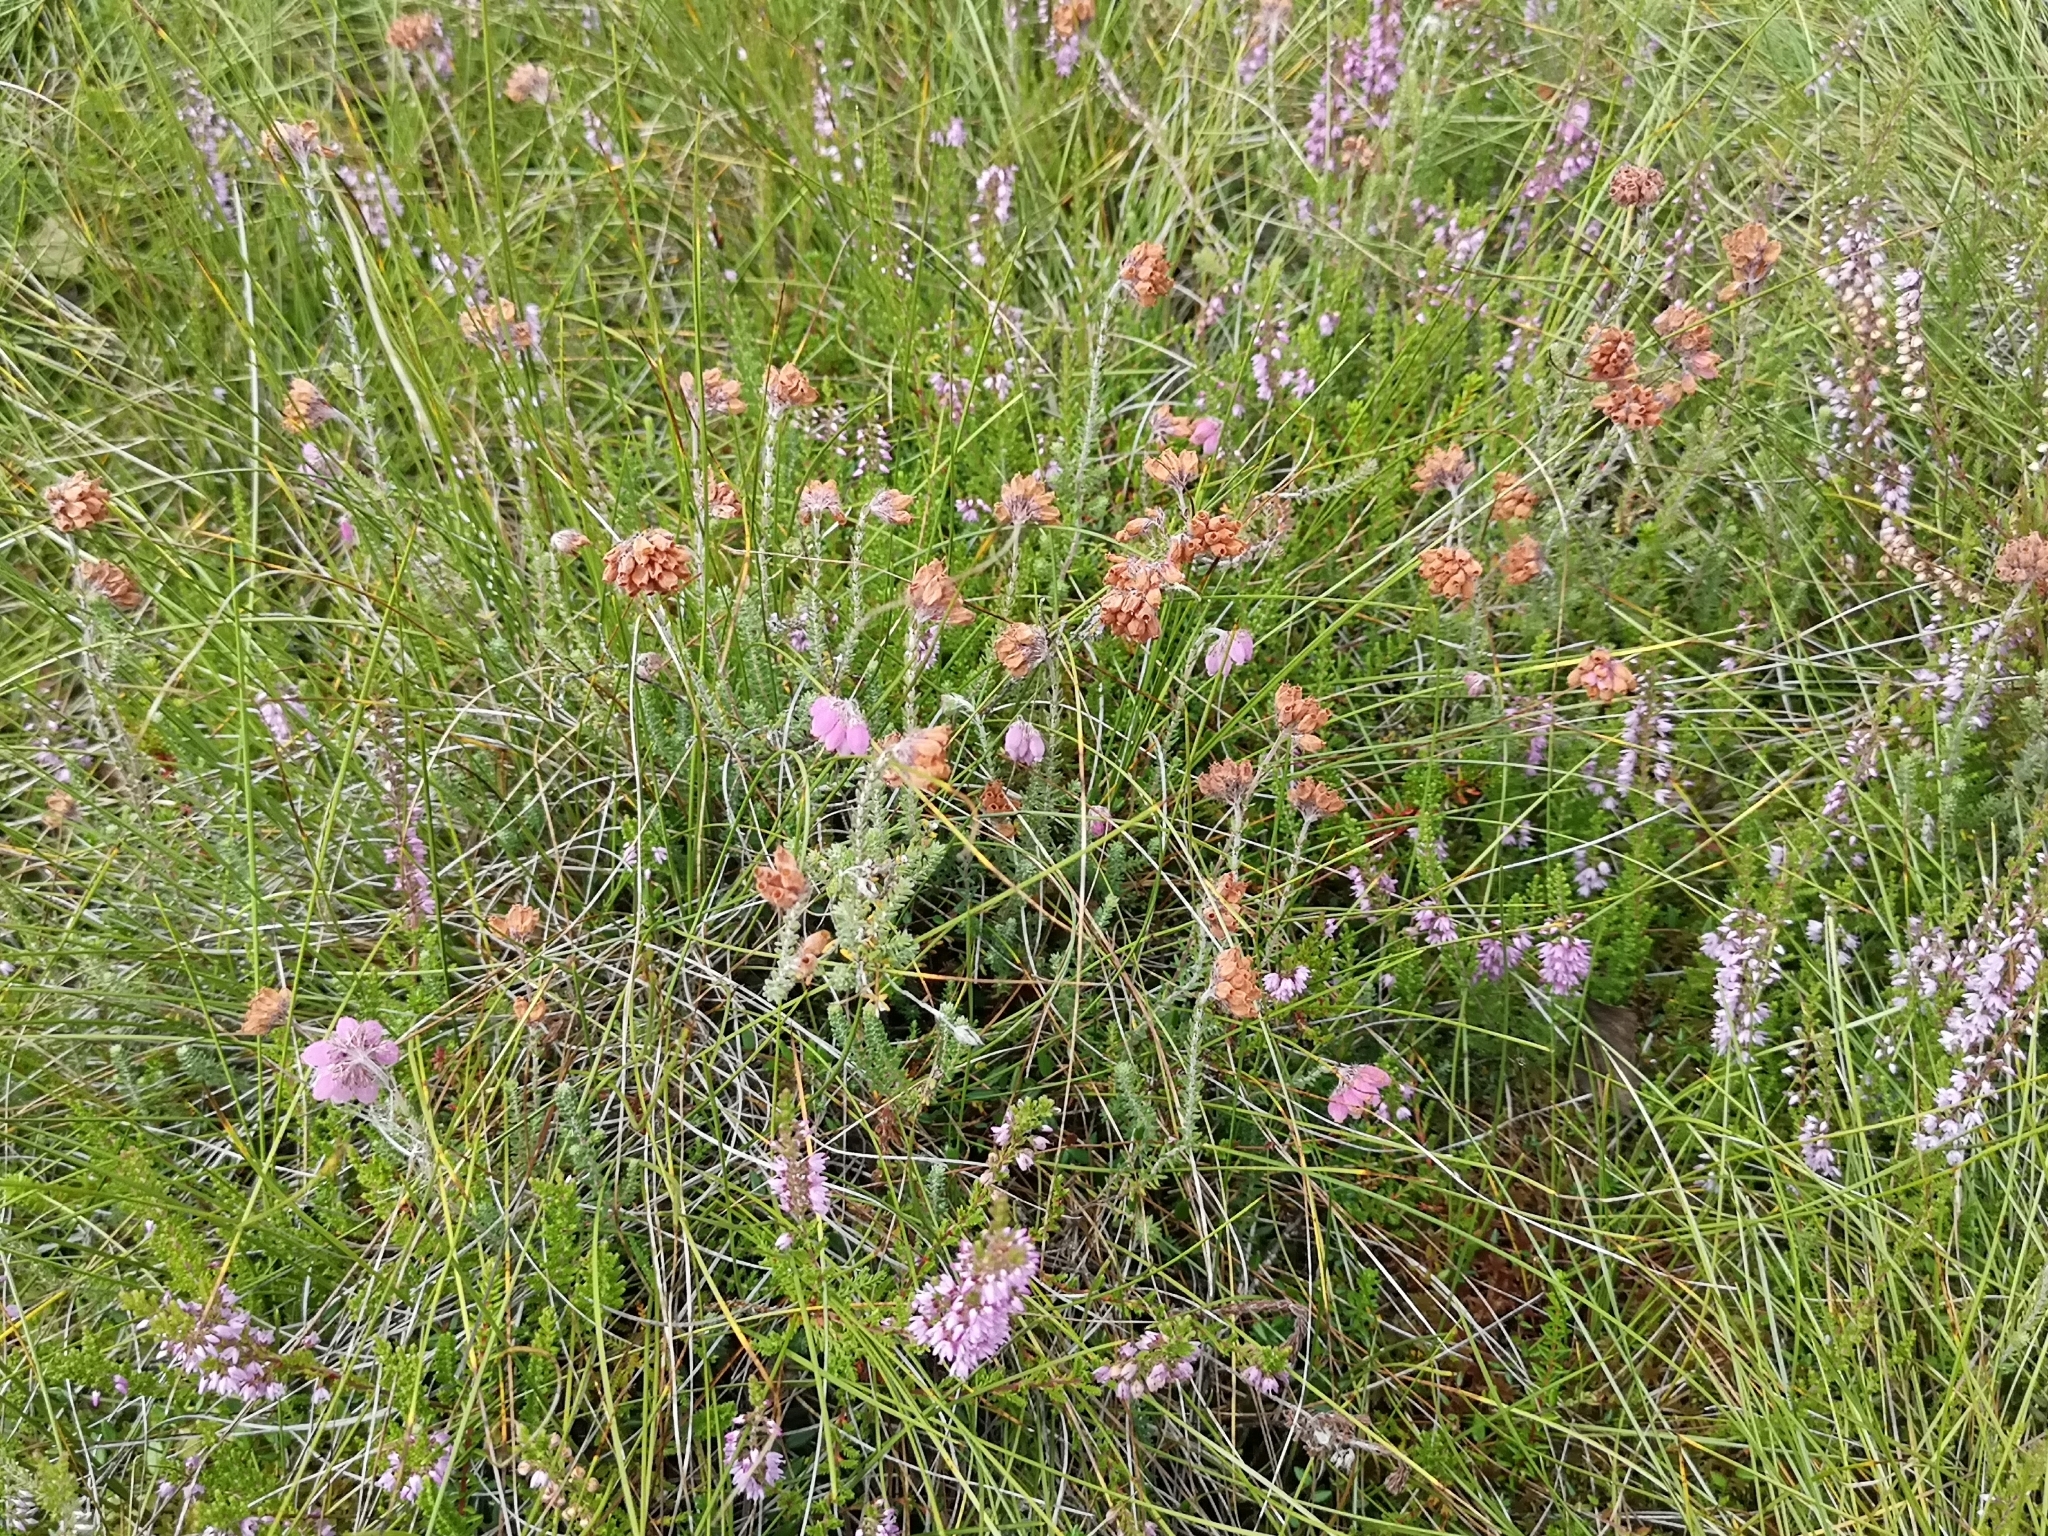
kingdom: Plantae
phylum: Tracheophyta
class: Magnoliopsida
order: Ericales
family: Ericaceae
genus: Erica
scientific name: Erica tetralix
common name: Cross-leaved heath
